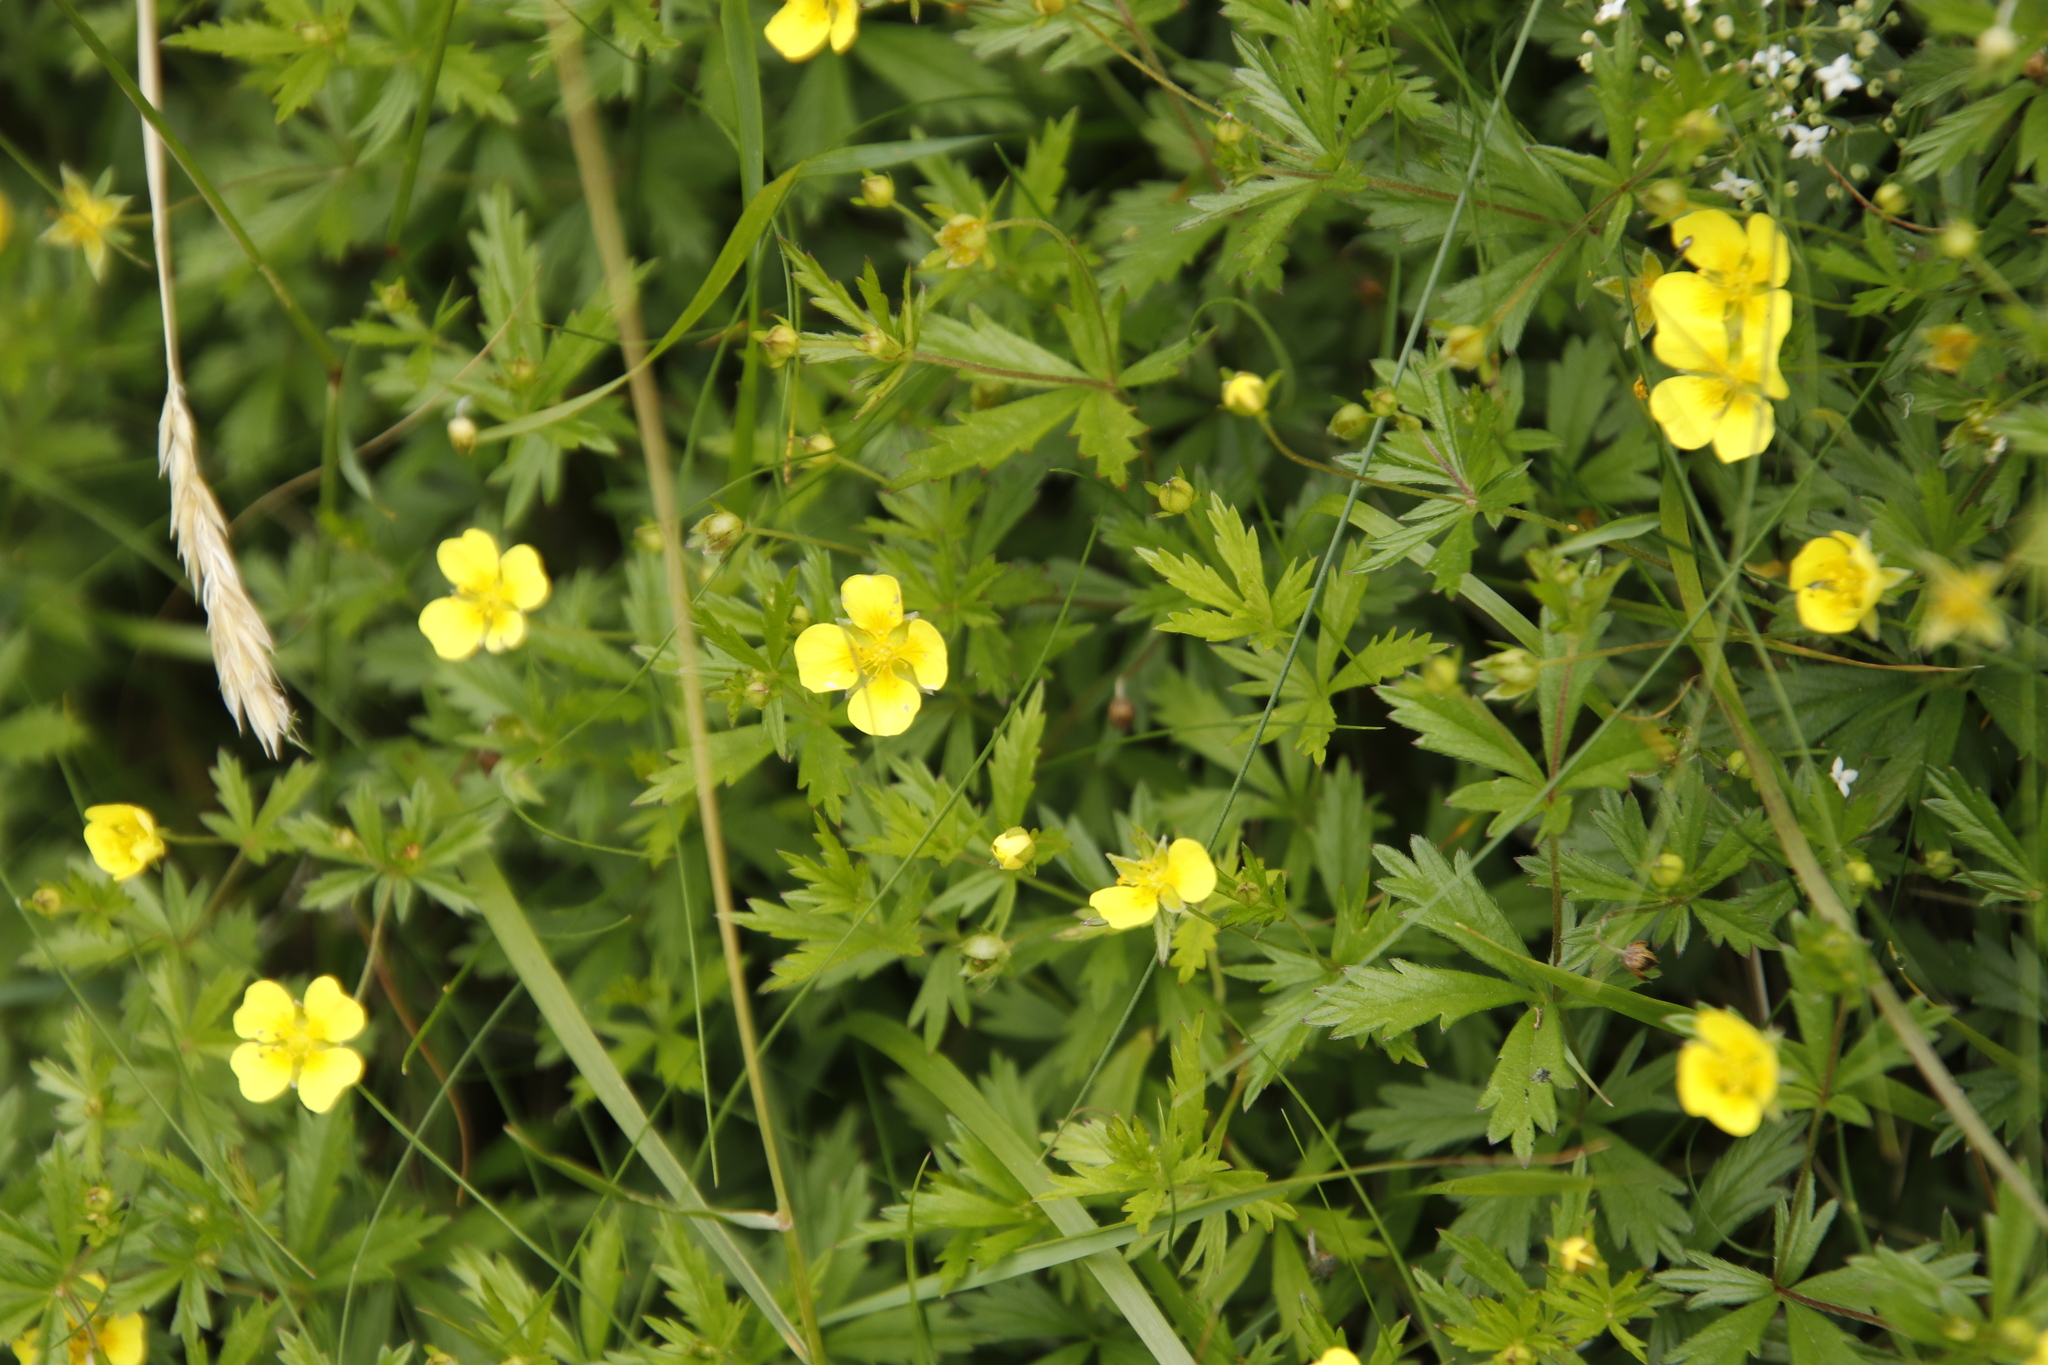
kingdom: Plantae
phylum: Tracheophyta
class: Magnoliopsida
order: Rosales
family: Rosaceae
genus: Potentilla
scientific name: Potentilla erecta
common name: Tormentil
